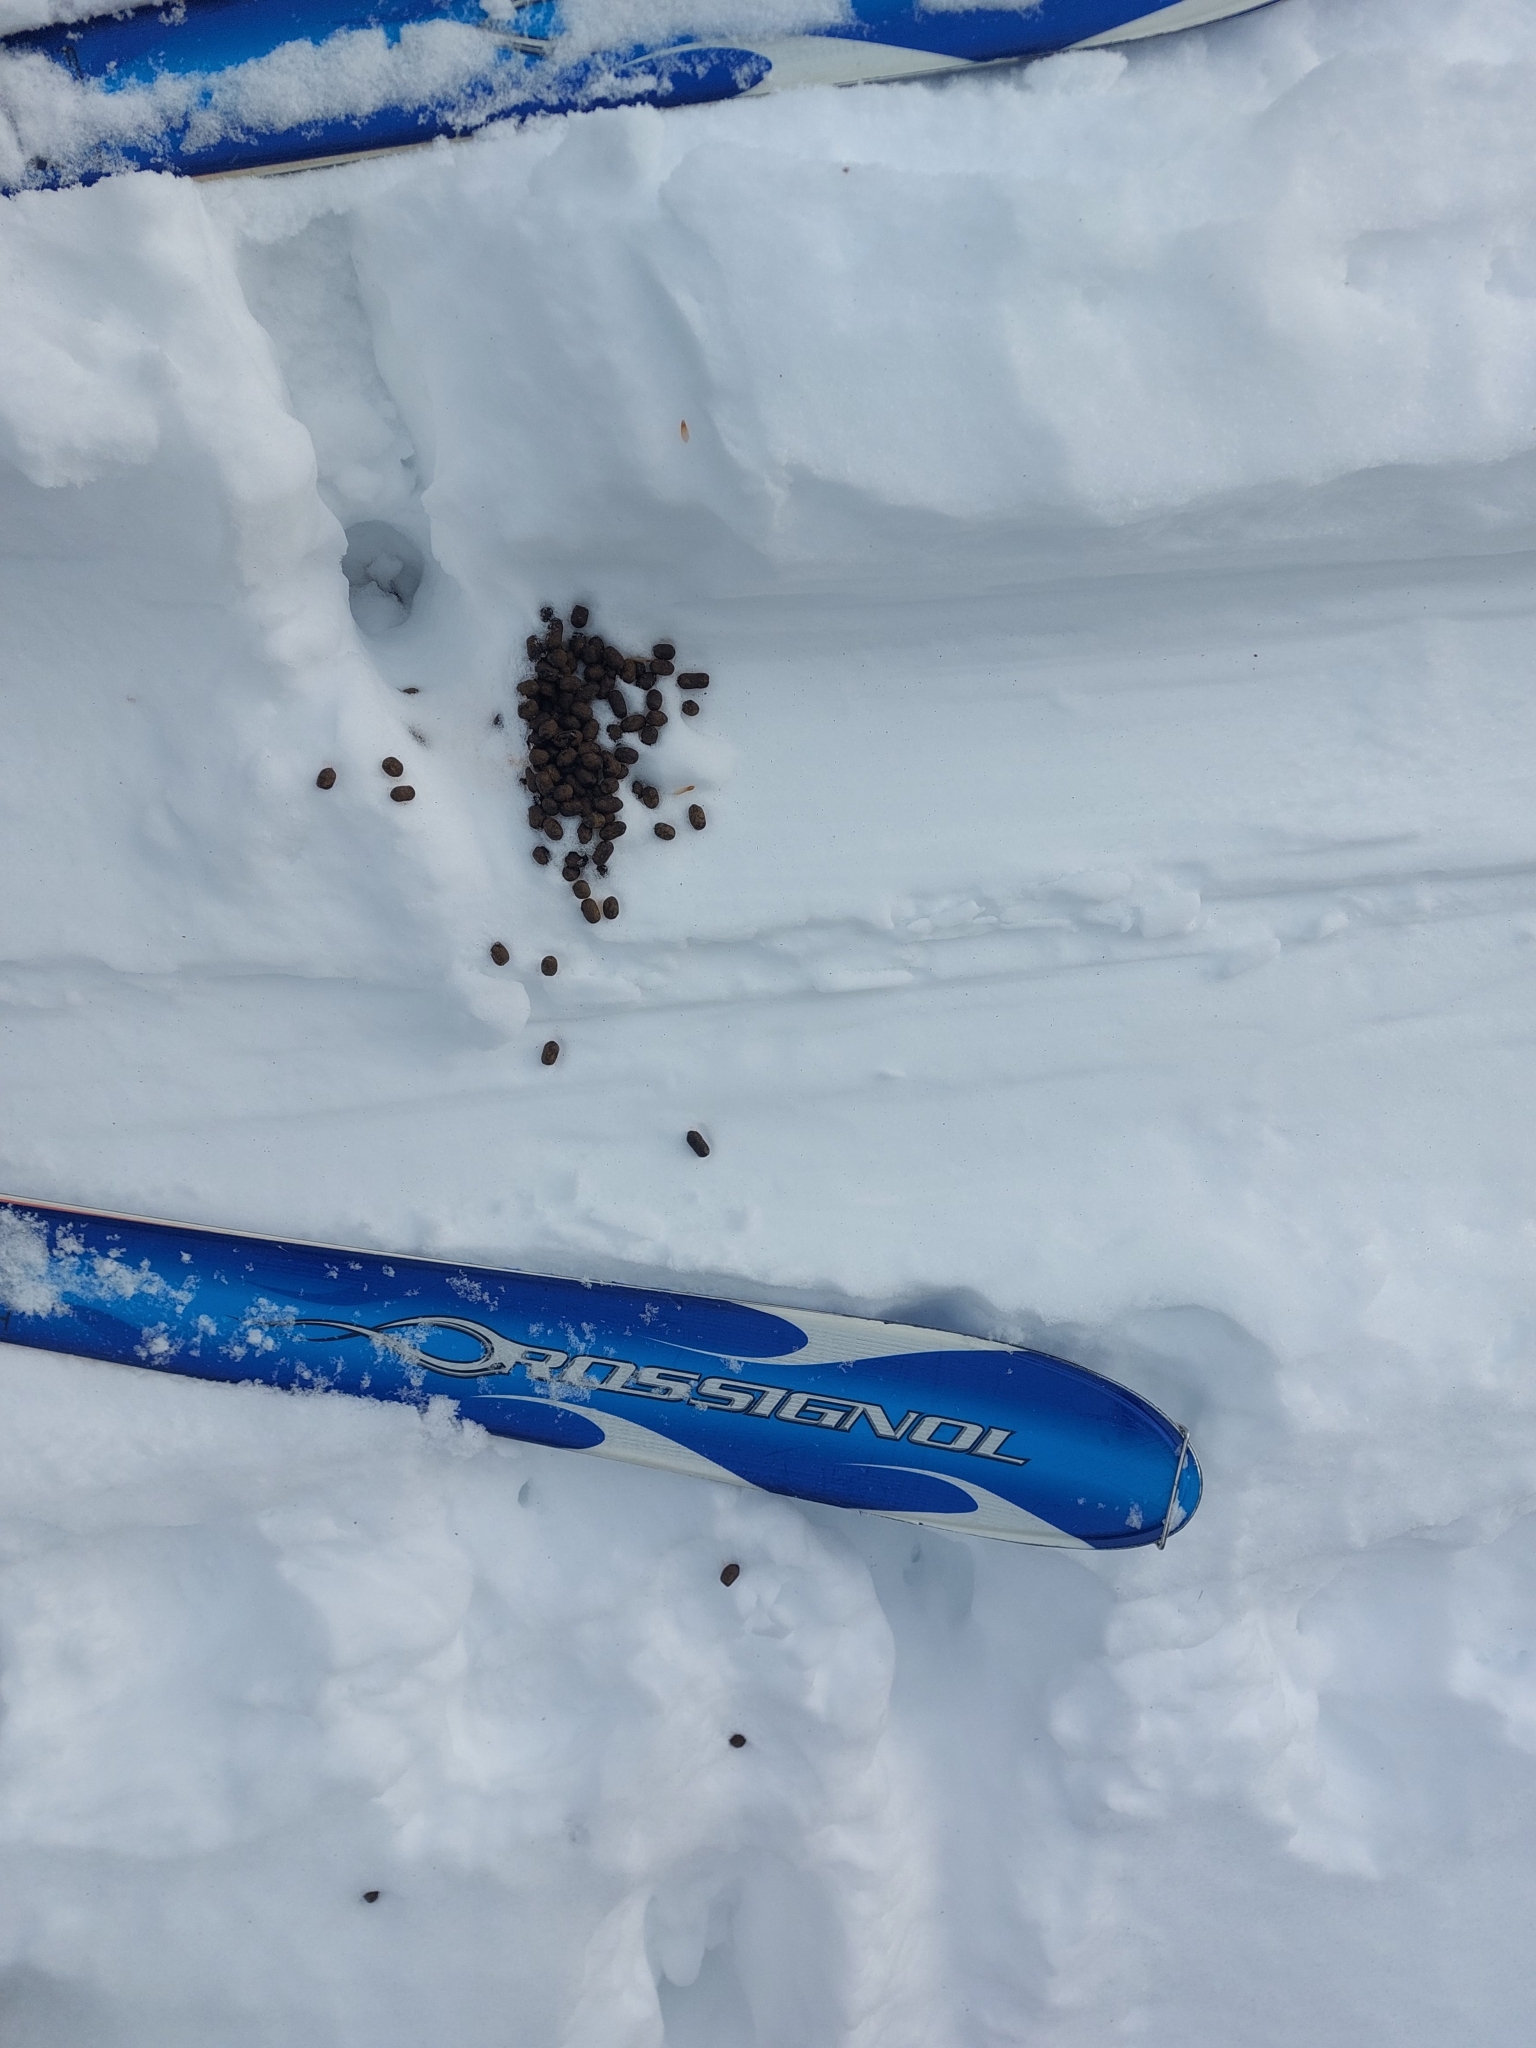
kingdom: Animalia
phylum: Chordata
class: Mammalia
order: Artiodactyla
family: Bovidae
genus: Rupicapra
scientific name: Rupicapra rupicapra
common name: Chamois
